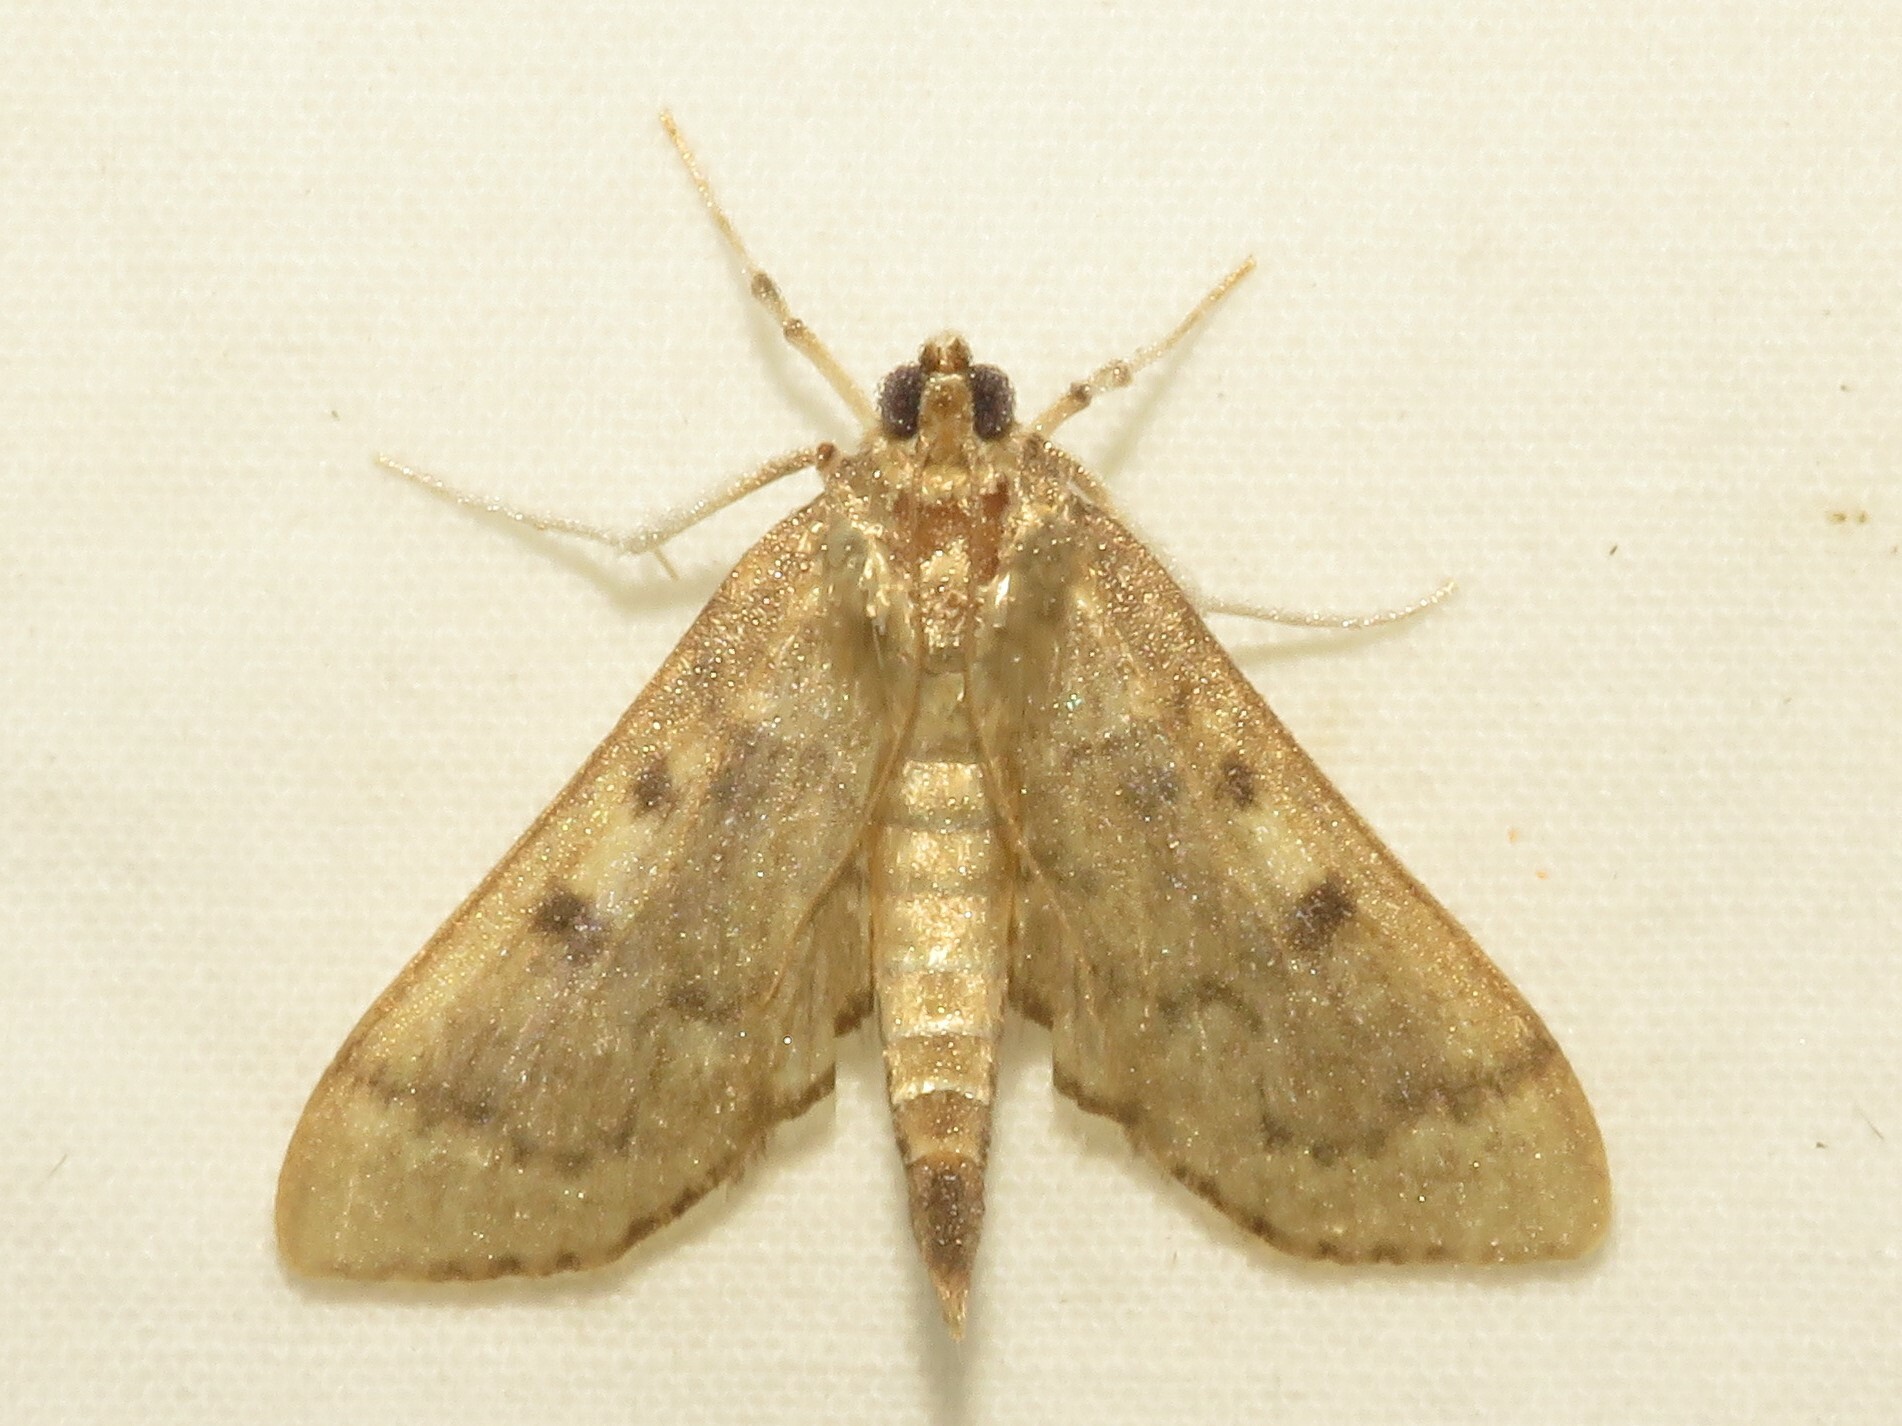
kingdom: Animalia
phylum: Arthropoda
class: Insecta
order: Lepidoptera
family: Crambidae
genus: Herpetogramma
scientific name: Herpetogramma aeglealis
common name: Serpentine webworm moth
